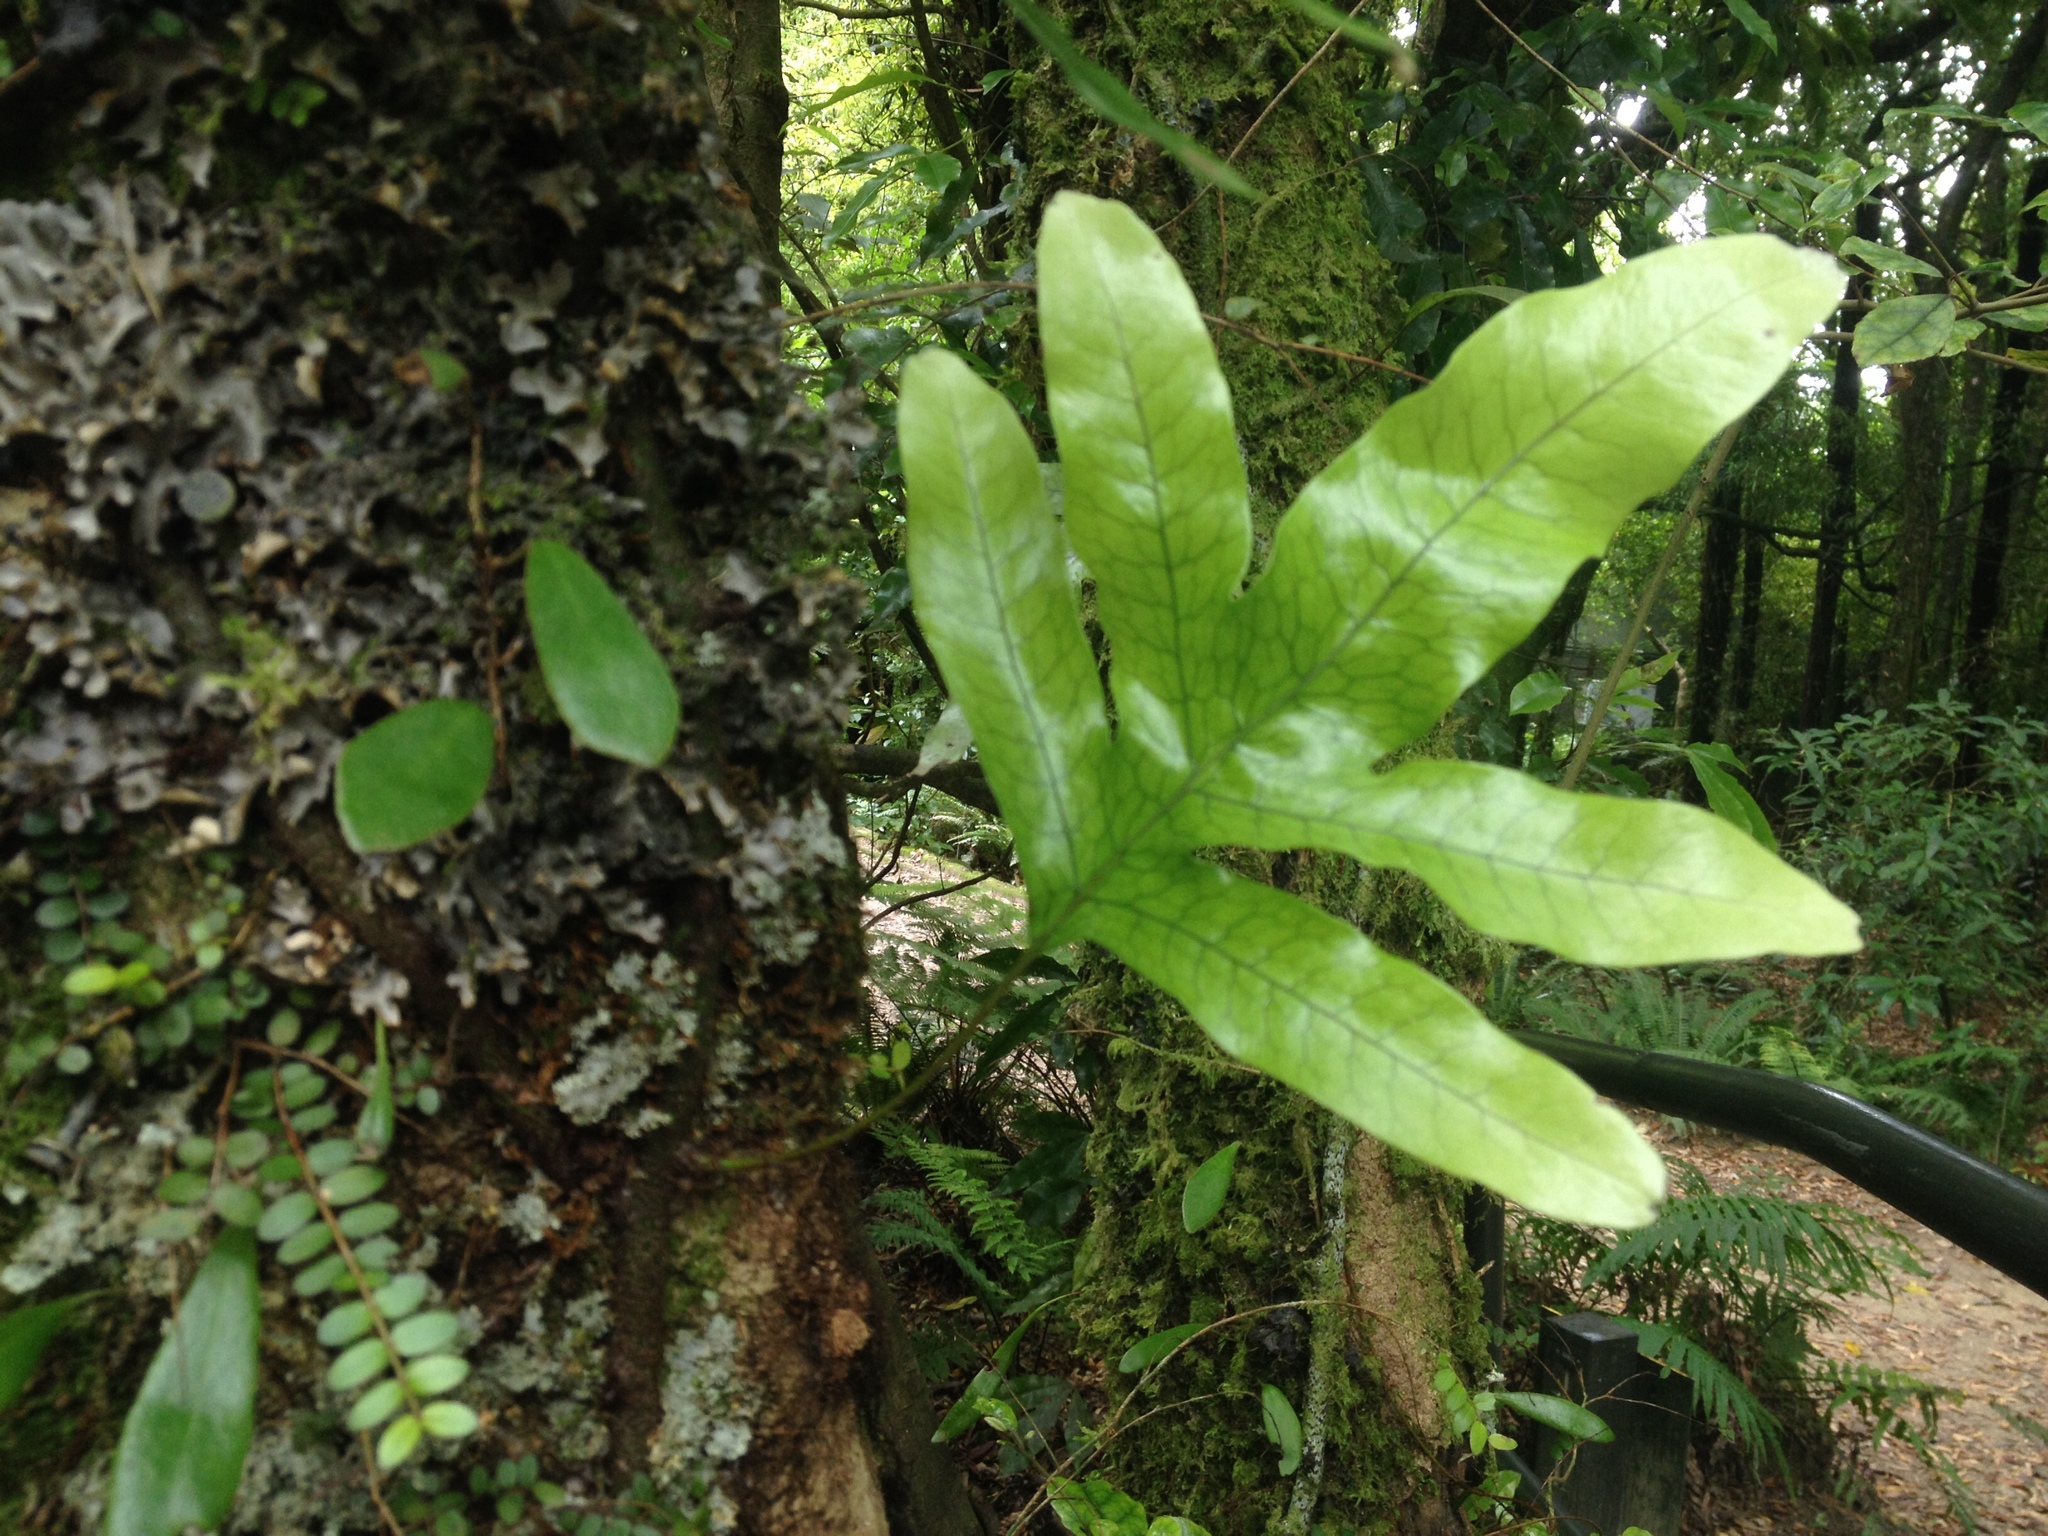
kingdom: Plantae
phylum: Tracheophyta
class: Polypodiopsida
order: Polypodiales
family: Polypodiaceae
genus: Lecanopteris
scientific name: Lecanopteris pustulata
